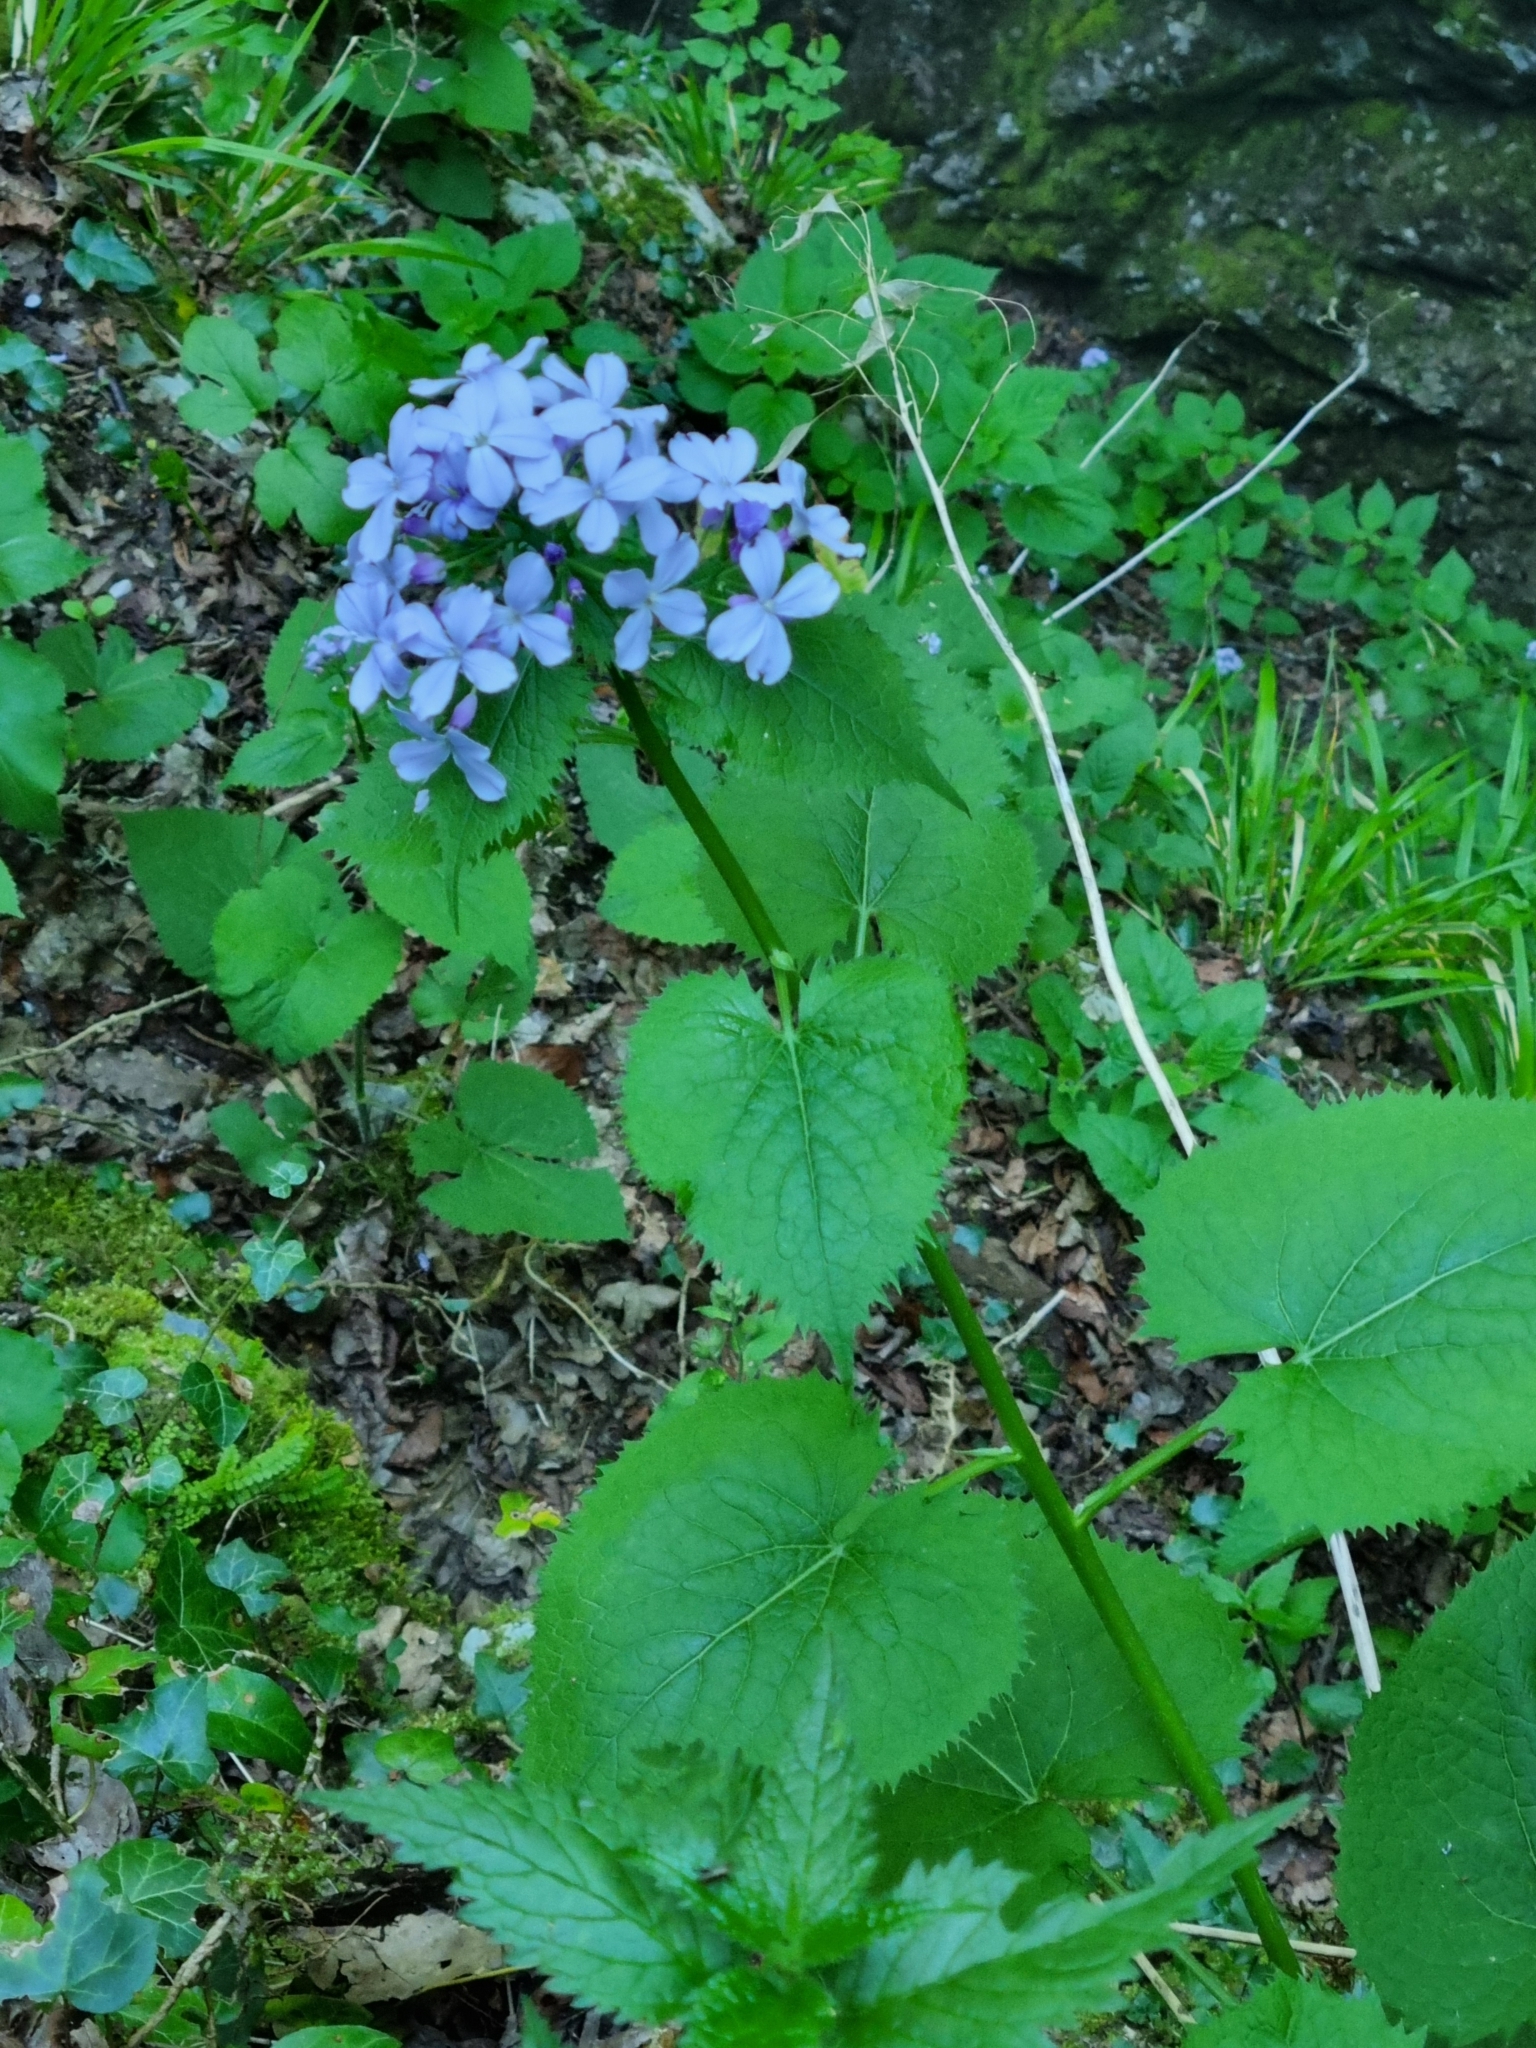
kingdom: Plantae
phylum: Tracheophyta
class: Magnoliopsida
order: Brassicales
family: Brassicaceae
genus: Lunaria
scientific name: Lunaria rediviva
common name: Perennial honesty
